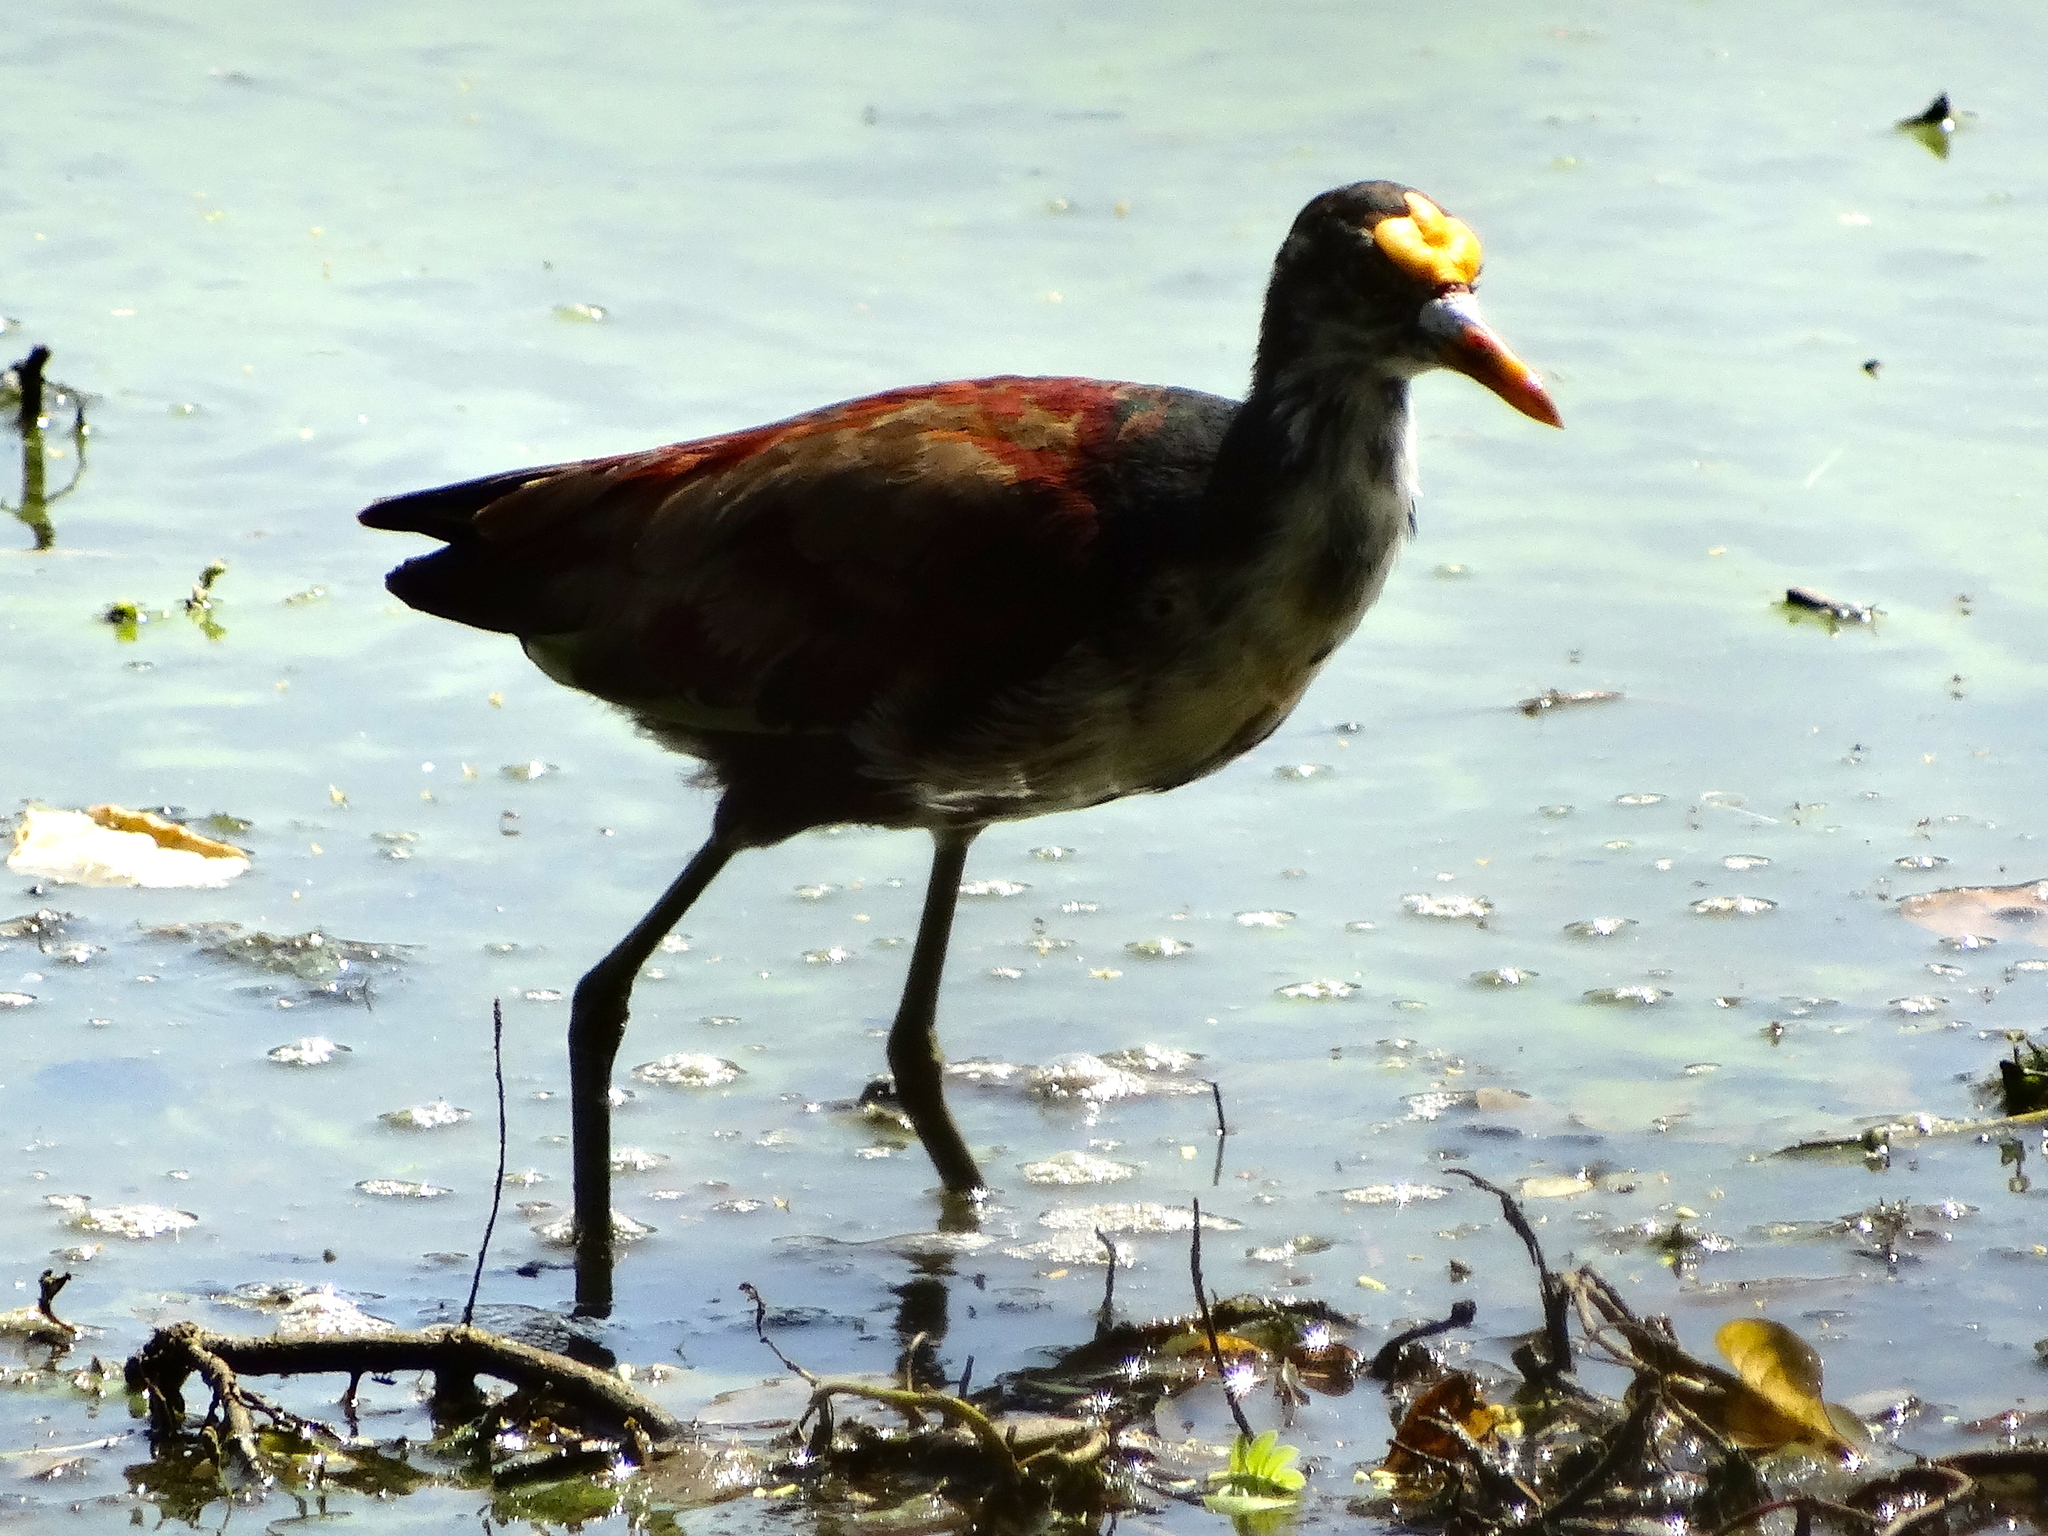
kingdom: Animalia
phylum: Chordata
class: Aves
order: Charadriiformes
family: Jacanidae
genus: Jacana
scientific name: Jacana spinosa
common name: Northern jacana
